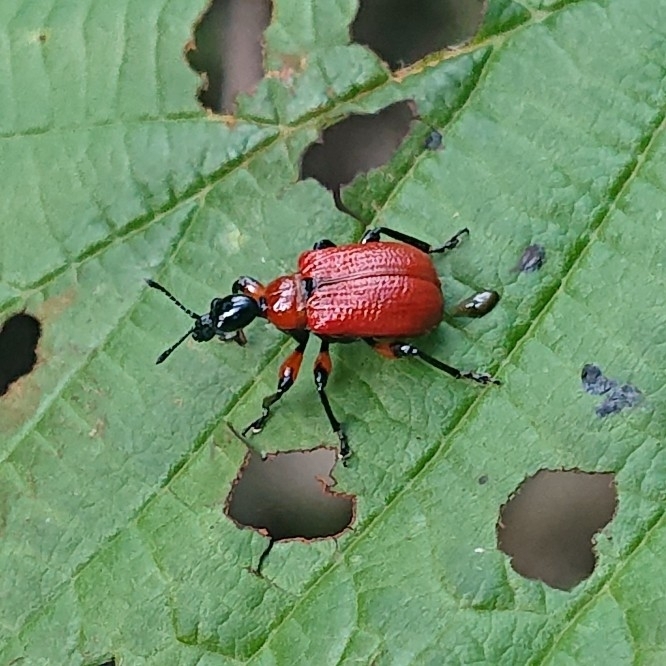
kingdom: Animalia
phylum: Arthropoda
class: Insecta
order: Coleoptera
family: Attelabidae
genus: Apoderus
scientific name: Apoderus coryli
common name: Hazel leaf roller
